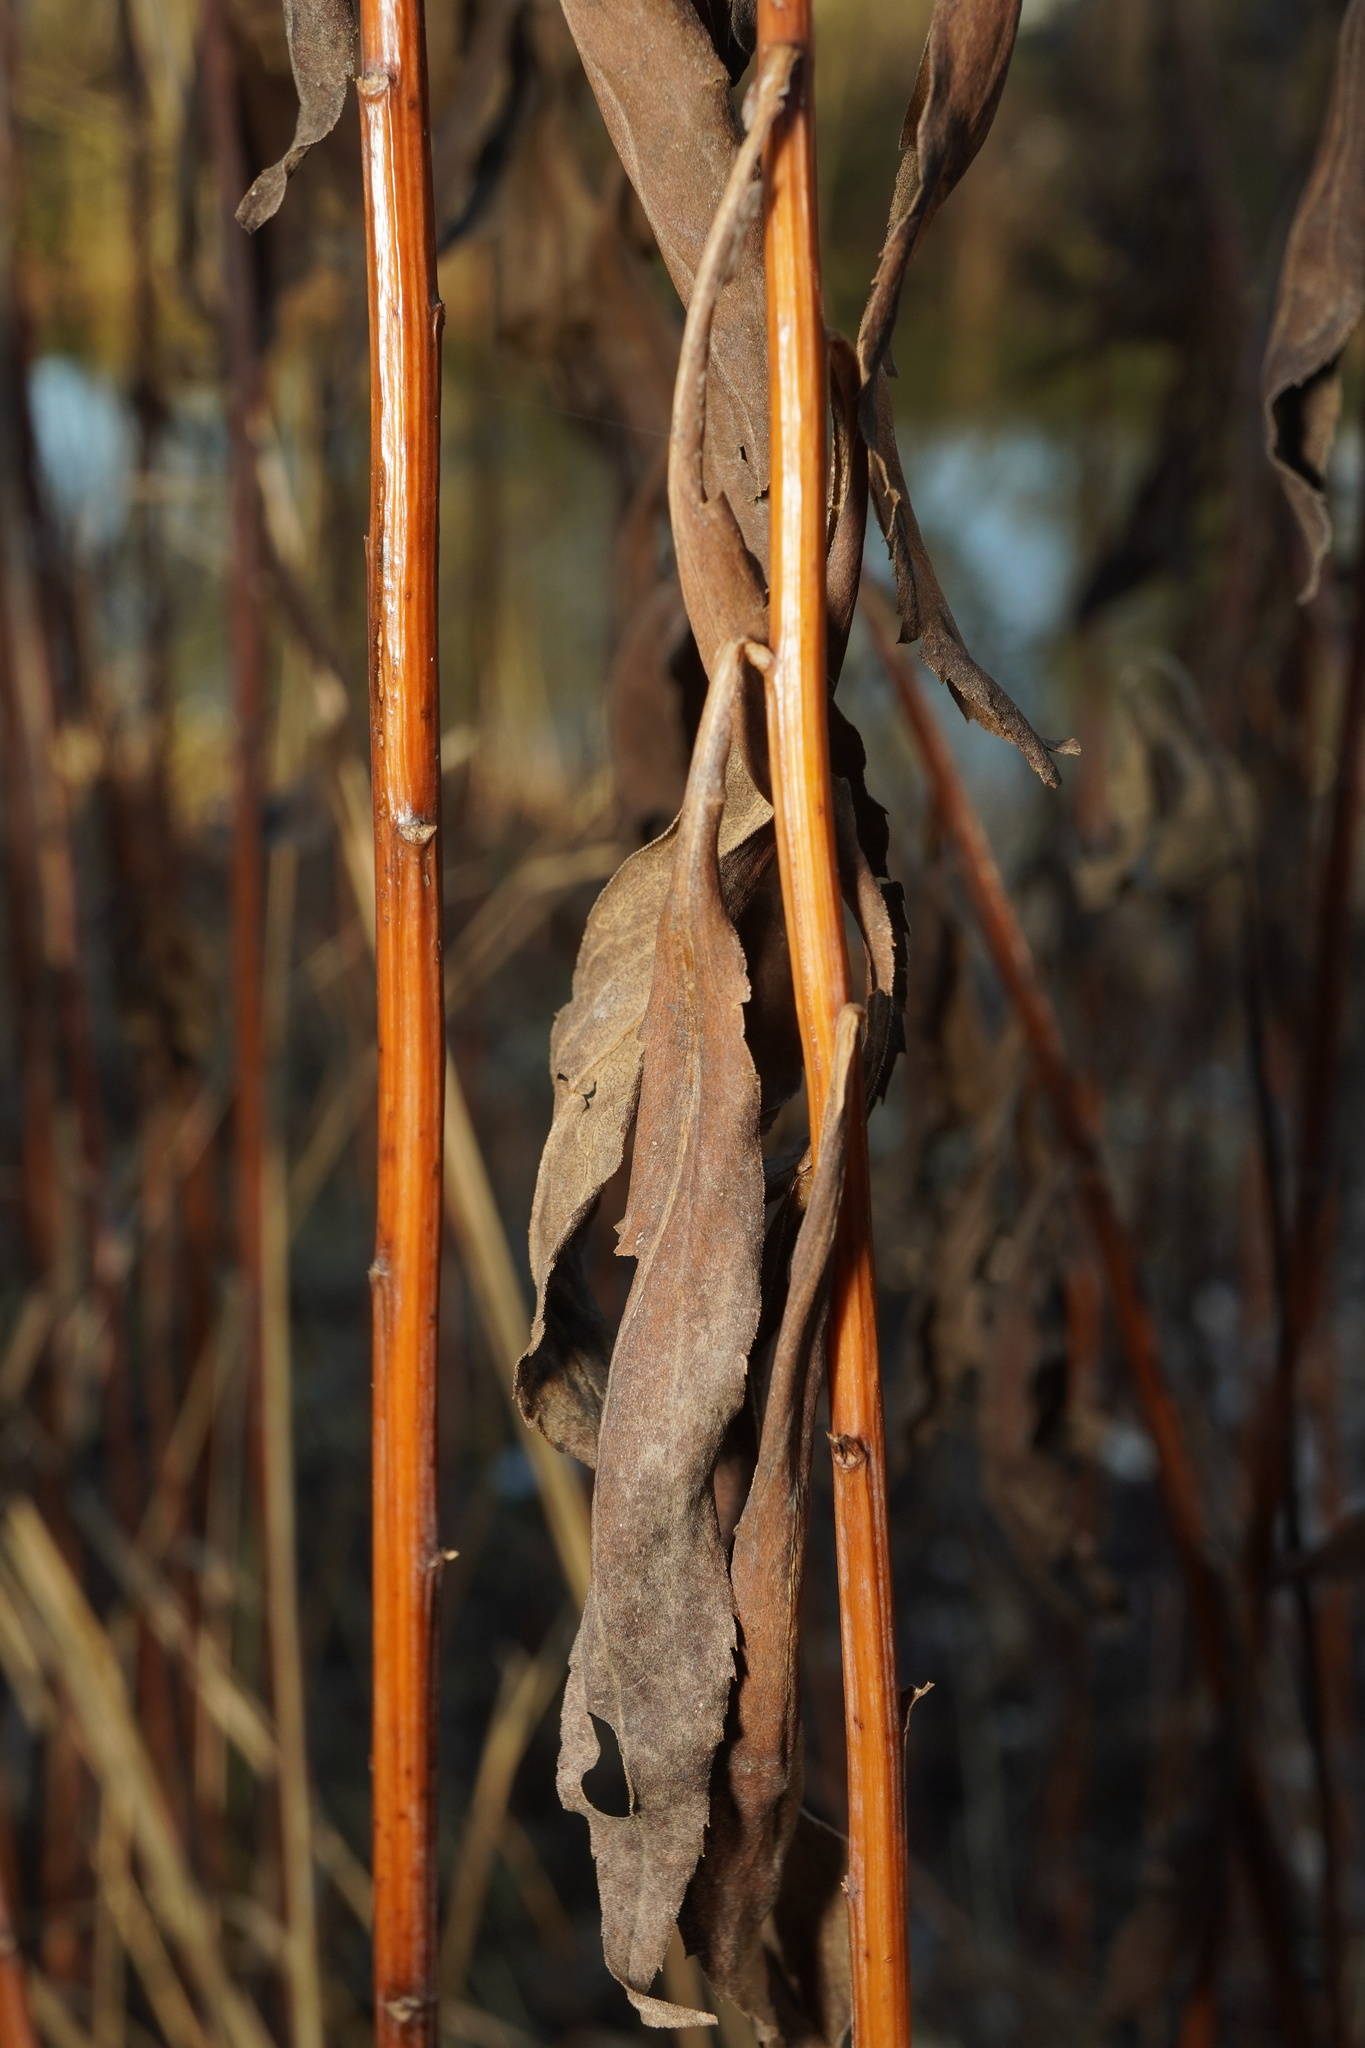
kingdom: Plantae
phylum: Tracheophyta
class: Magnoliopsida
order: Asterales
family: Asteraceae
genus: Solidago
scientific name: Solidago gigantea
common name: Giant goldenrod
